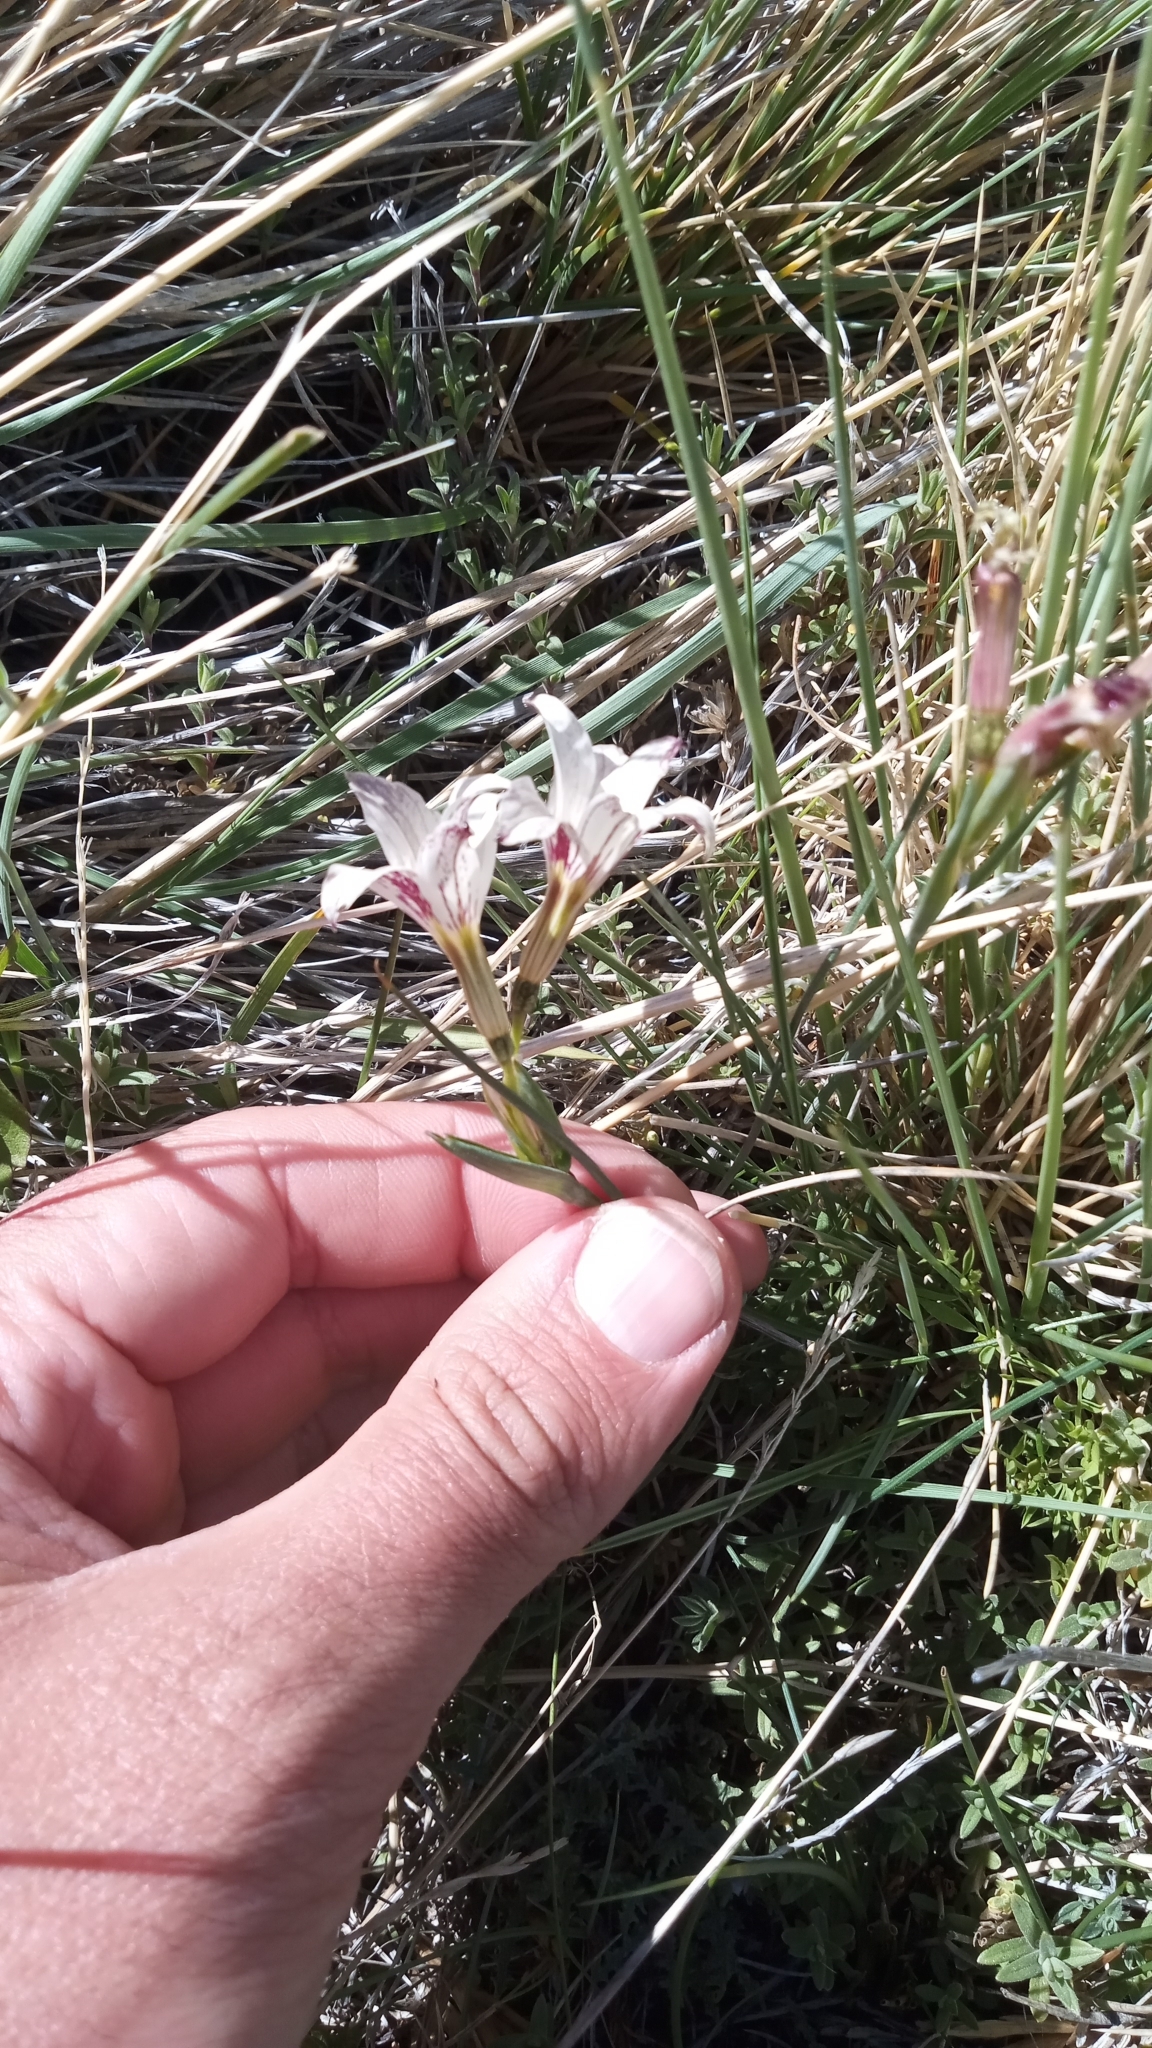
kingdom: Plantae
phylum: Tracheophyta
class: Liliopsida
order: Asparagales
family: Iridaceae
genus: Olsynium
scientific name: Olsynium biflorum
